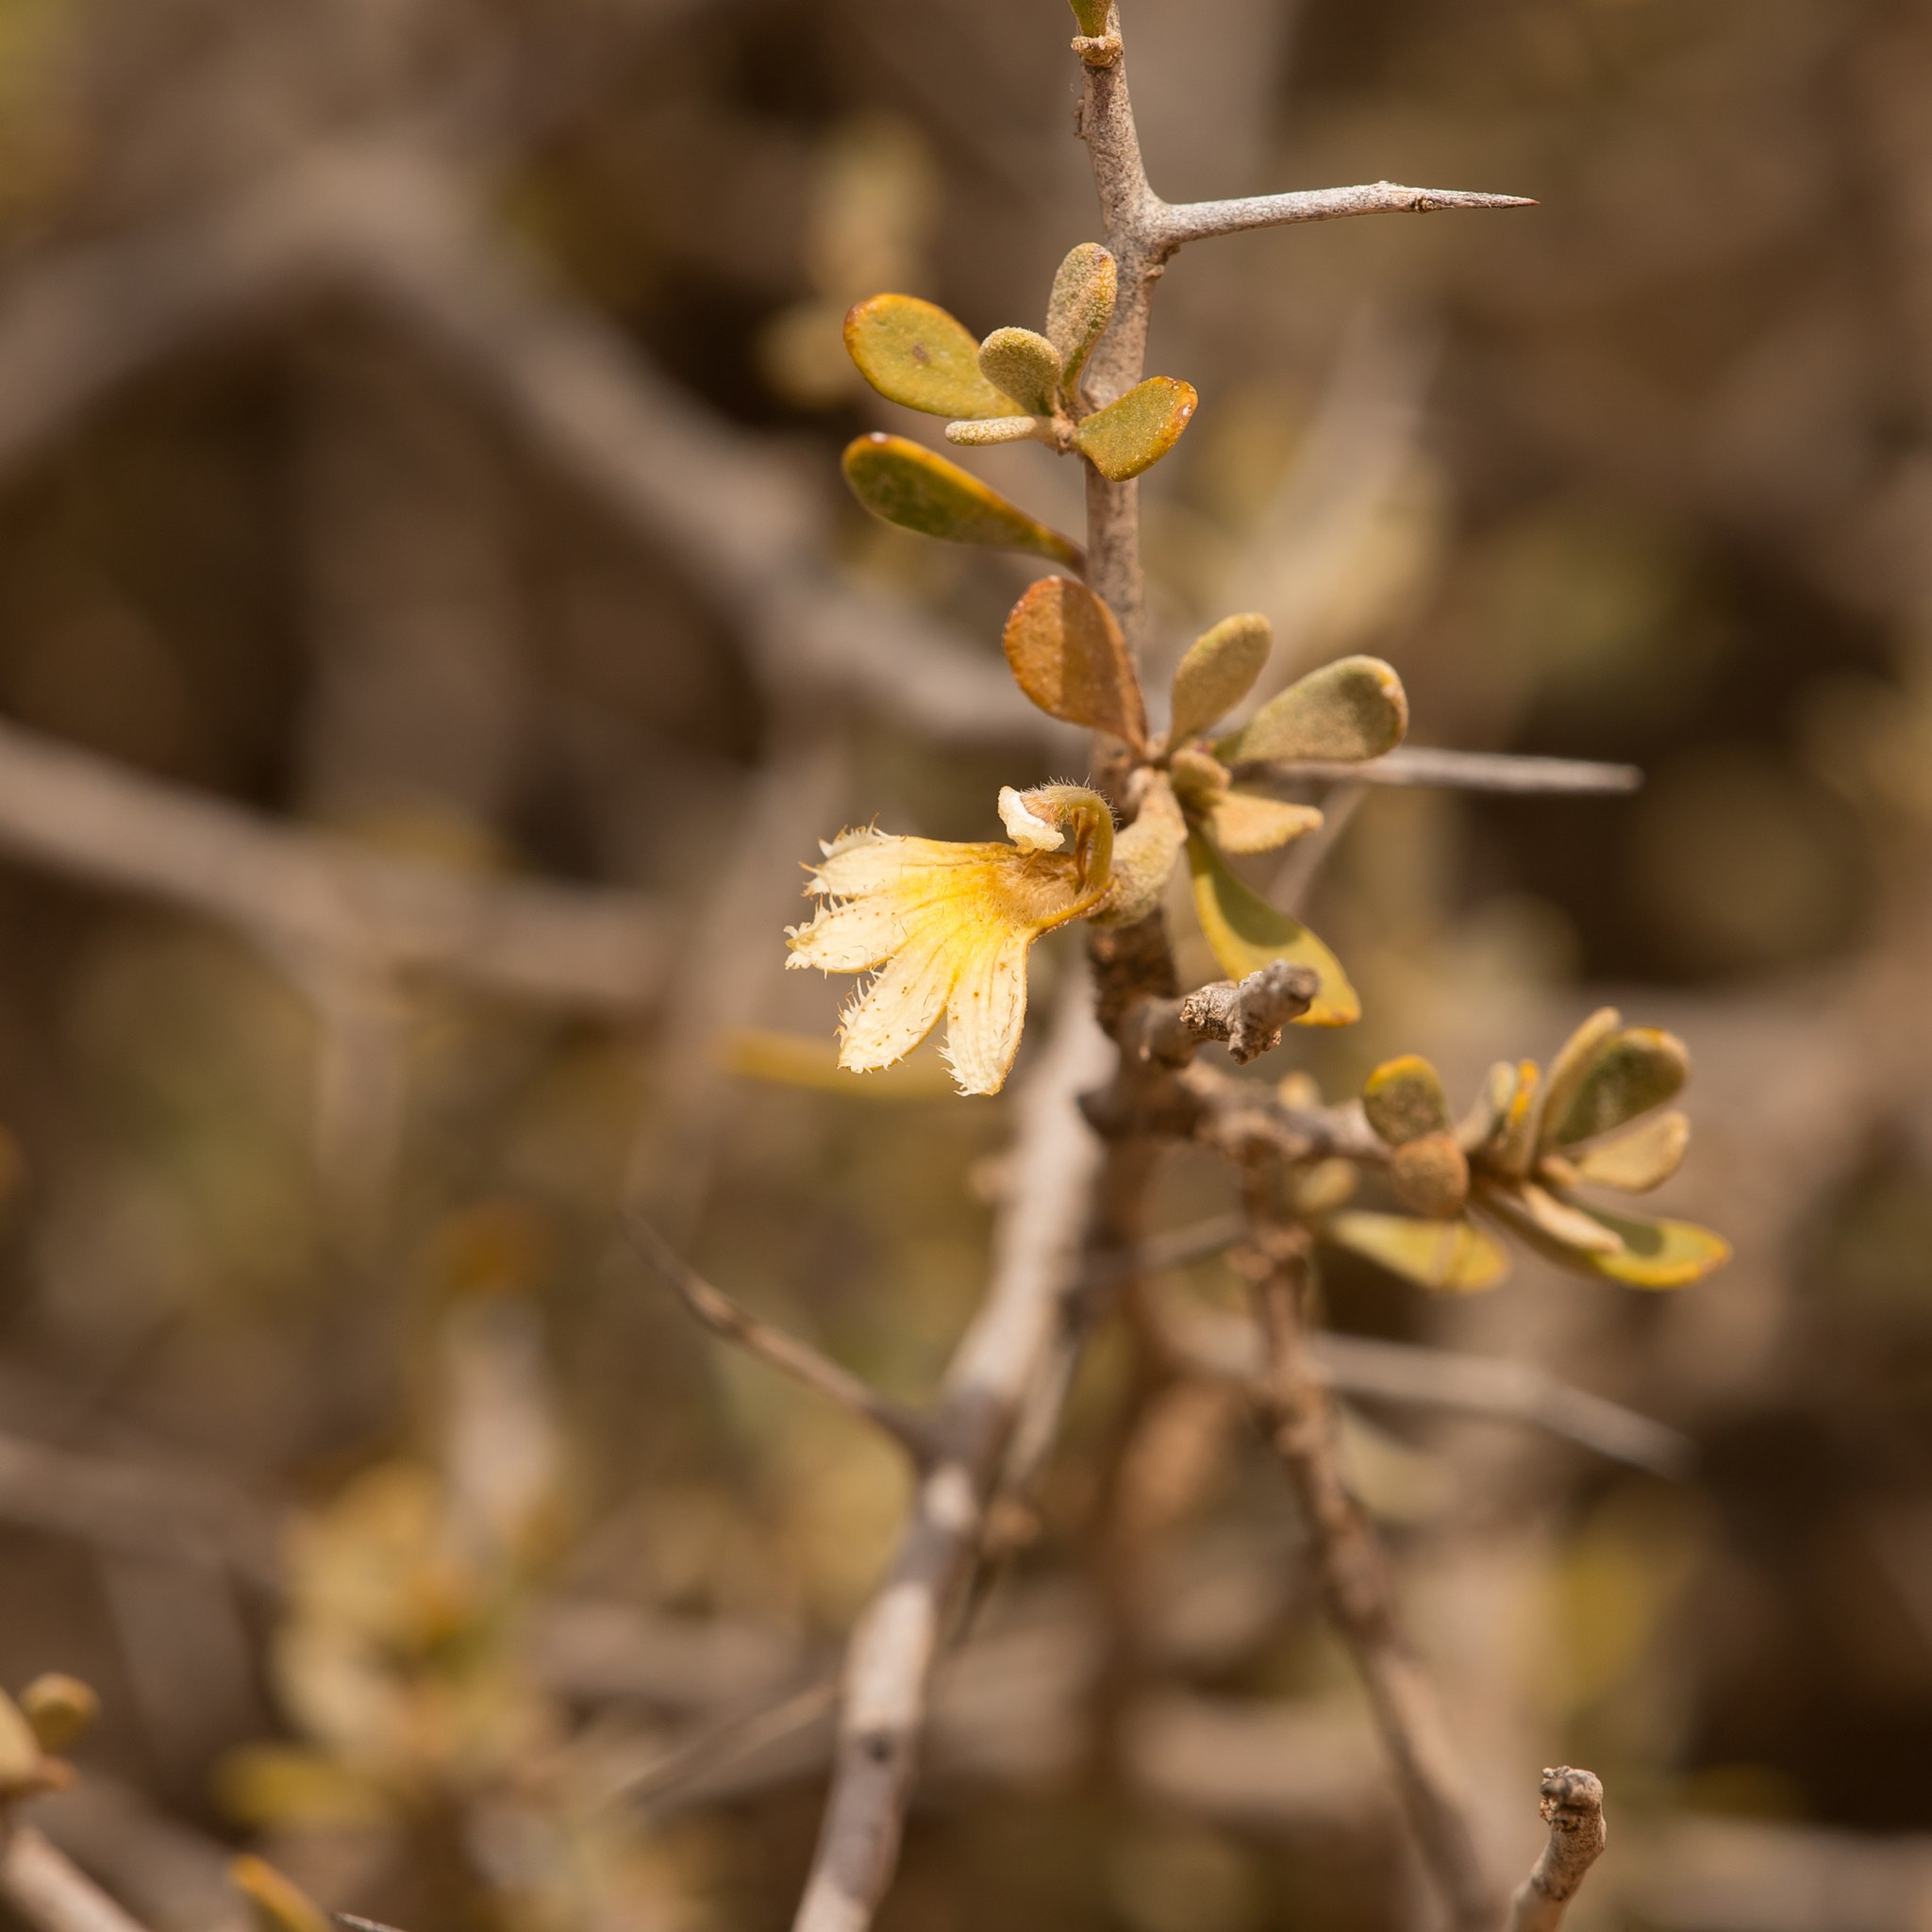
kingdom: Plantae
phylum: Tracheophyta
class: Magnoliopsida
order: Asterales
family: Goodeniaceae
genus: Scaevola
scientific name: Scaevola spinescens
